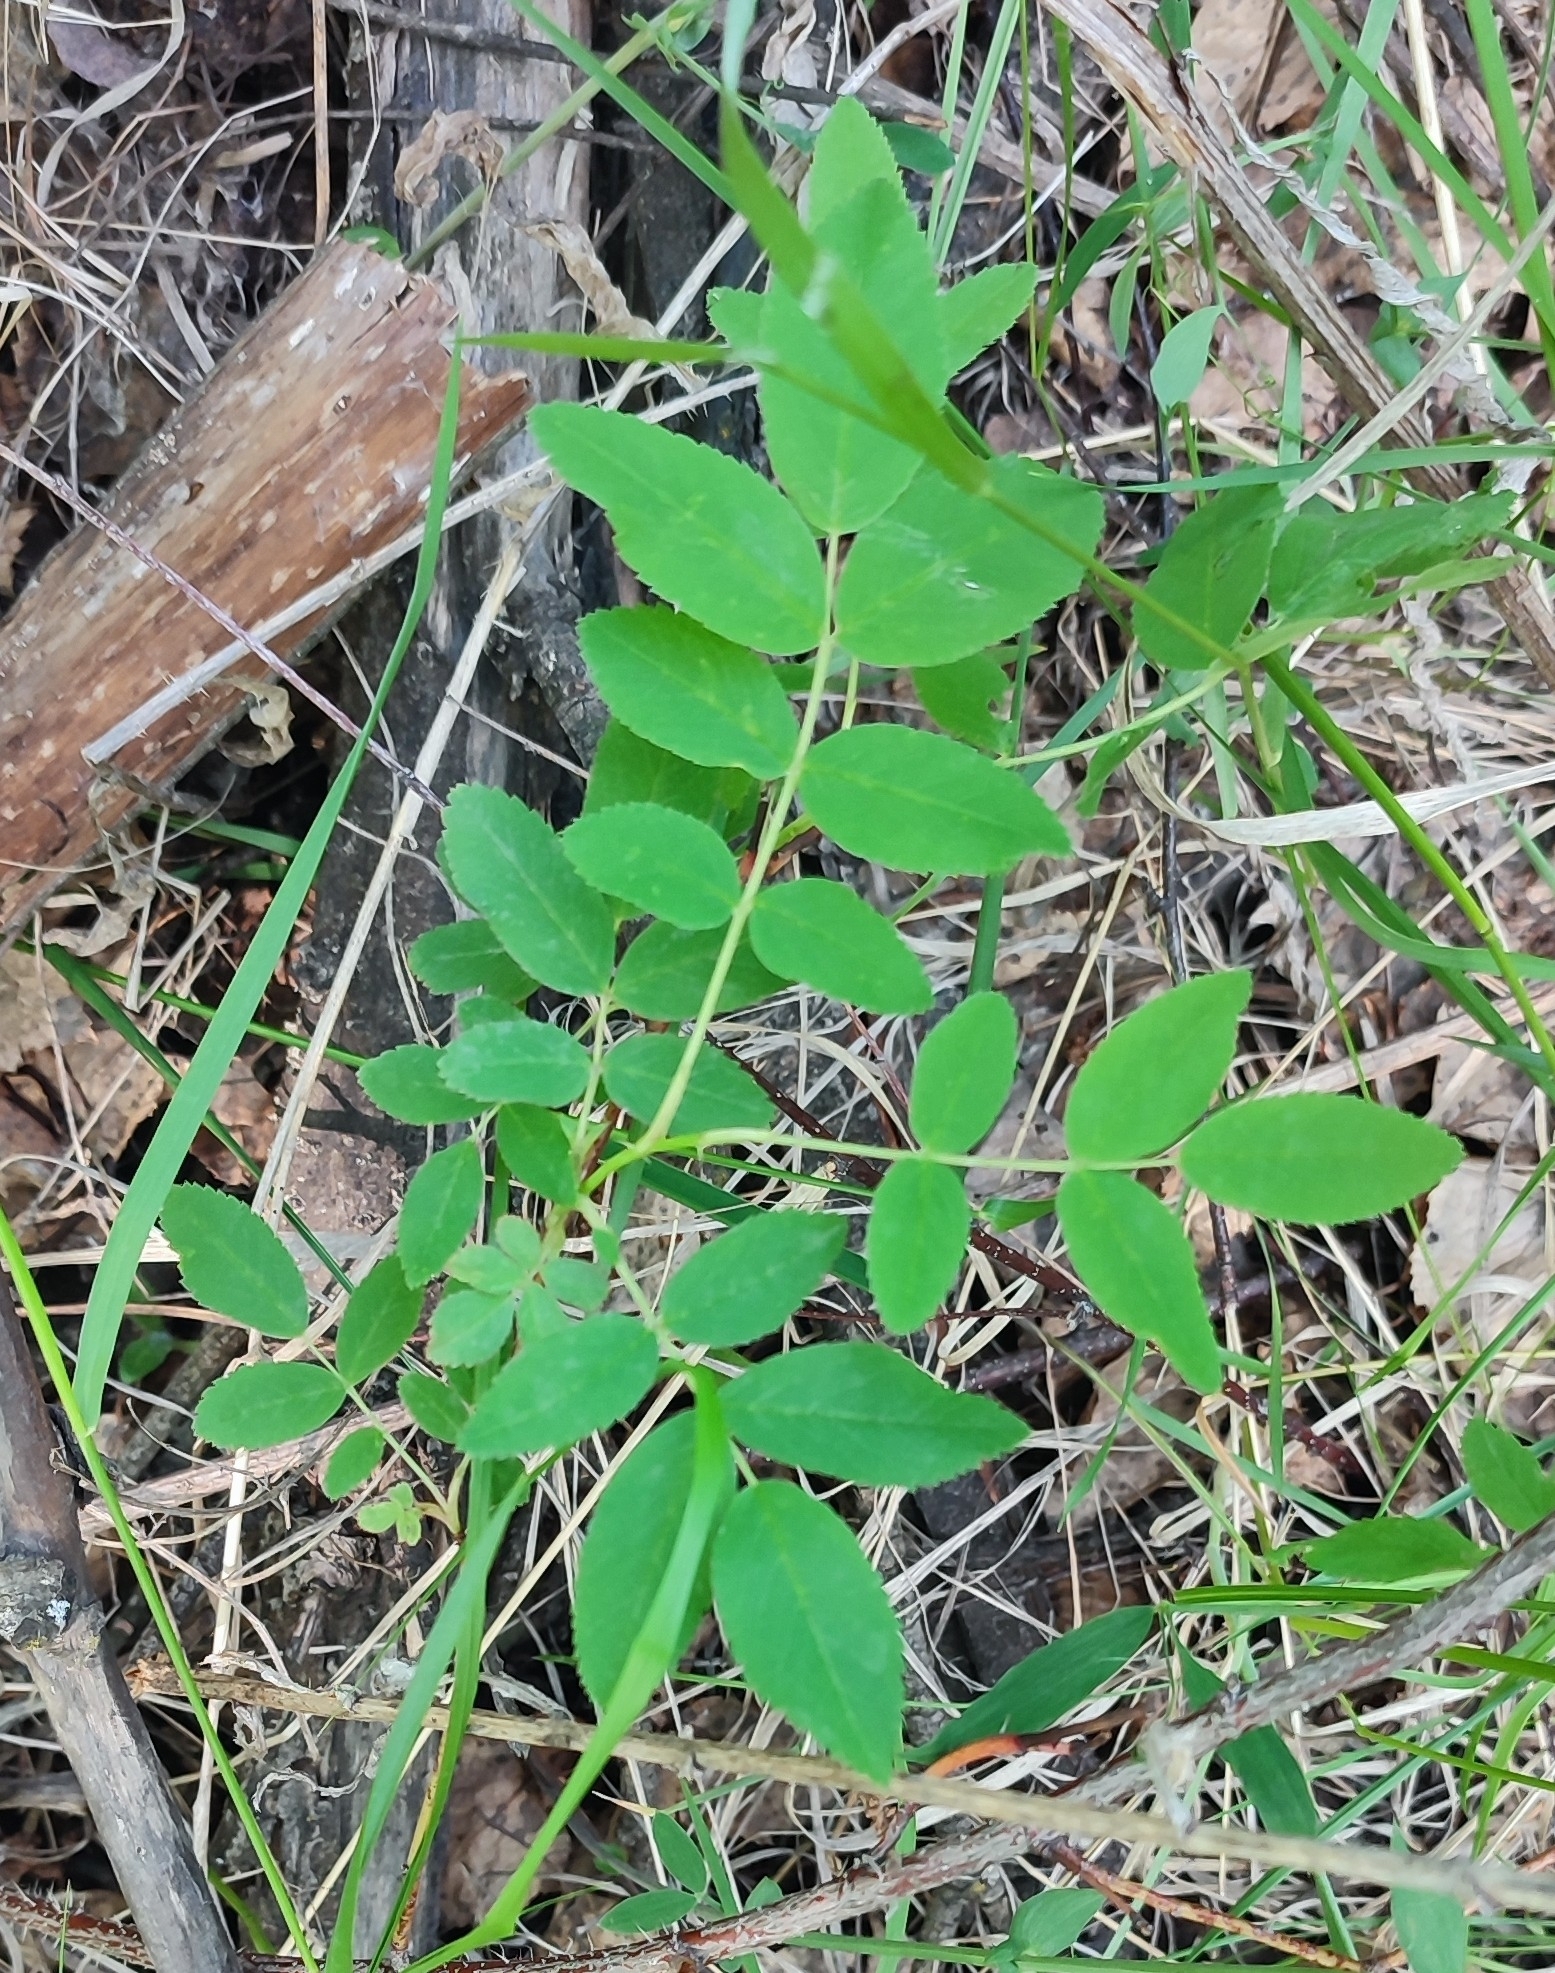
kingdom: Plantae
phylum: Tracheophyta
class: Magnoliopsida
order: Rosales
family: Rosaceae
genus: Rosa
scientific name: Rosa majalis
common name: Cinnamon rose
